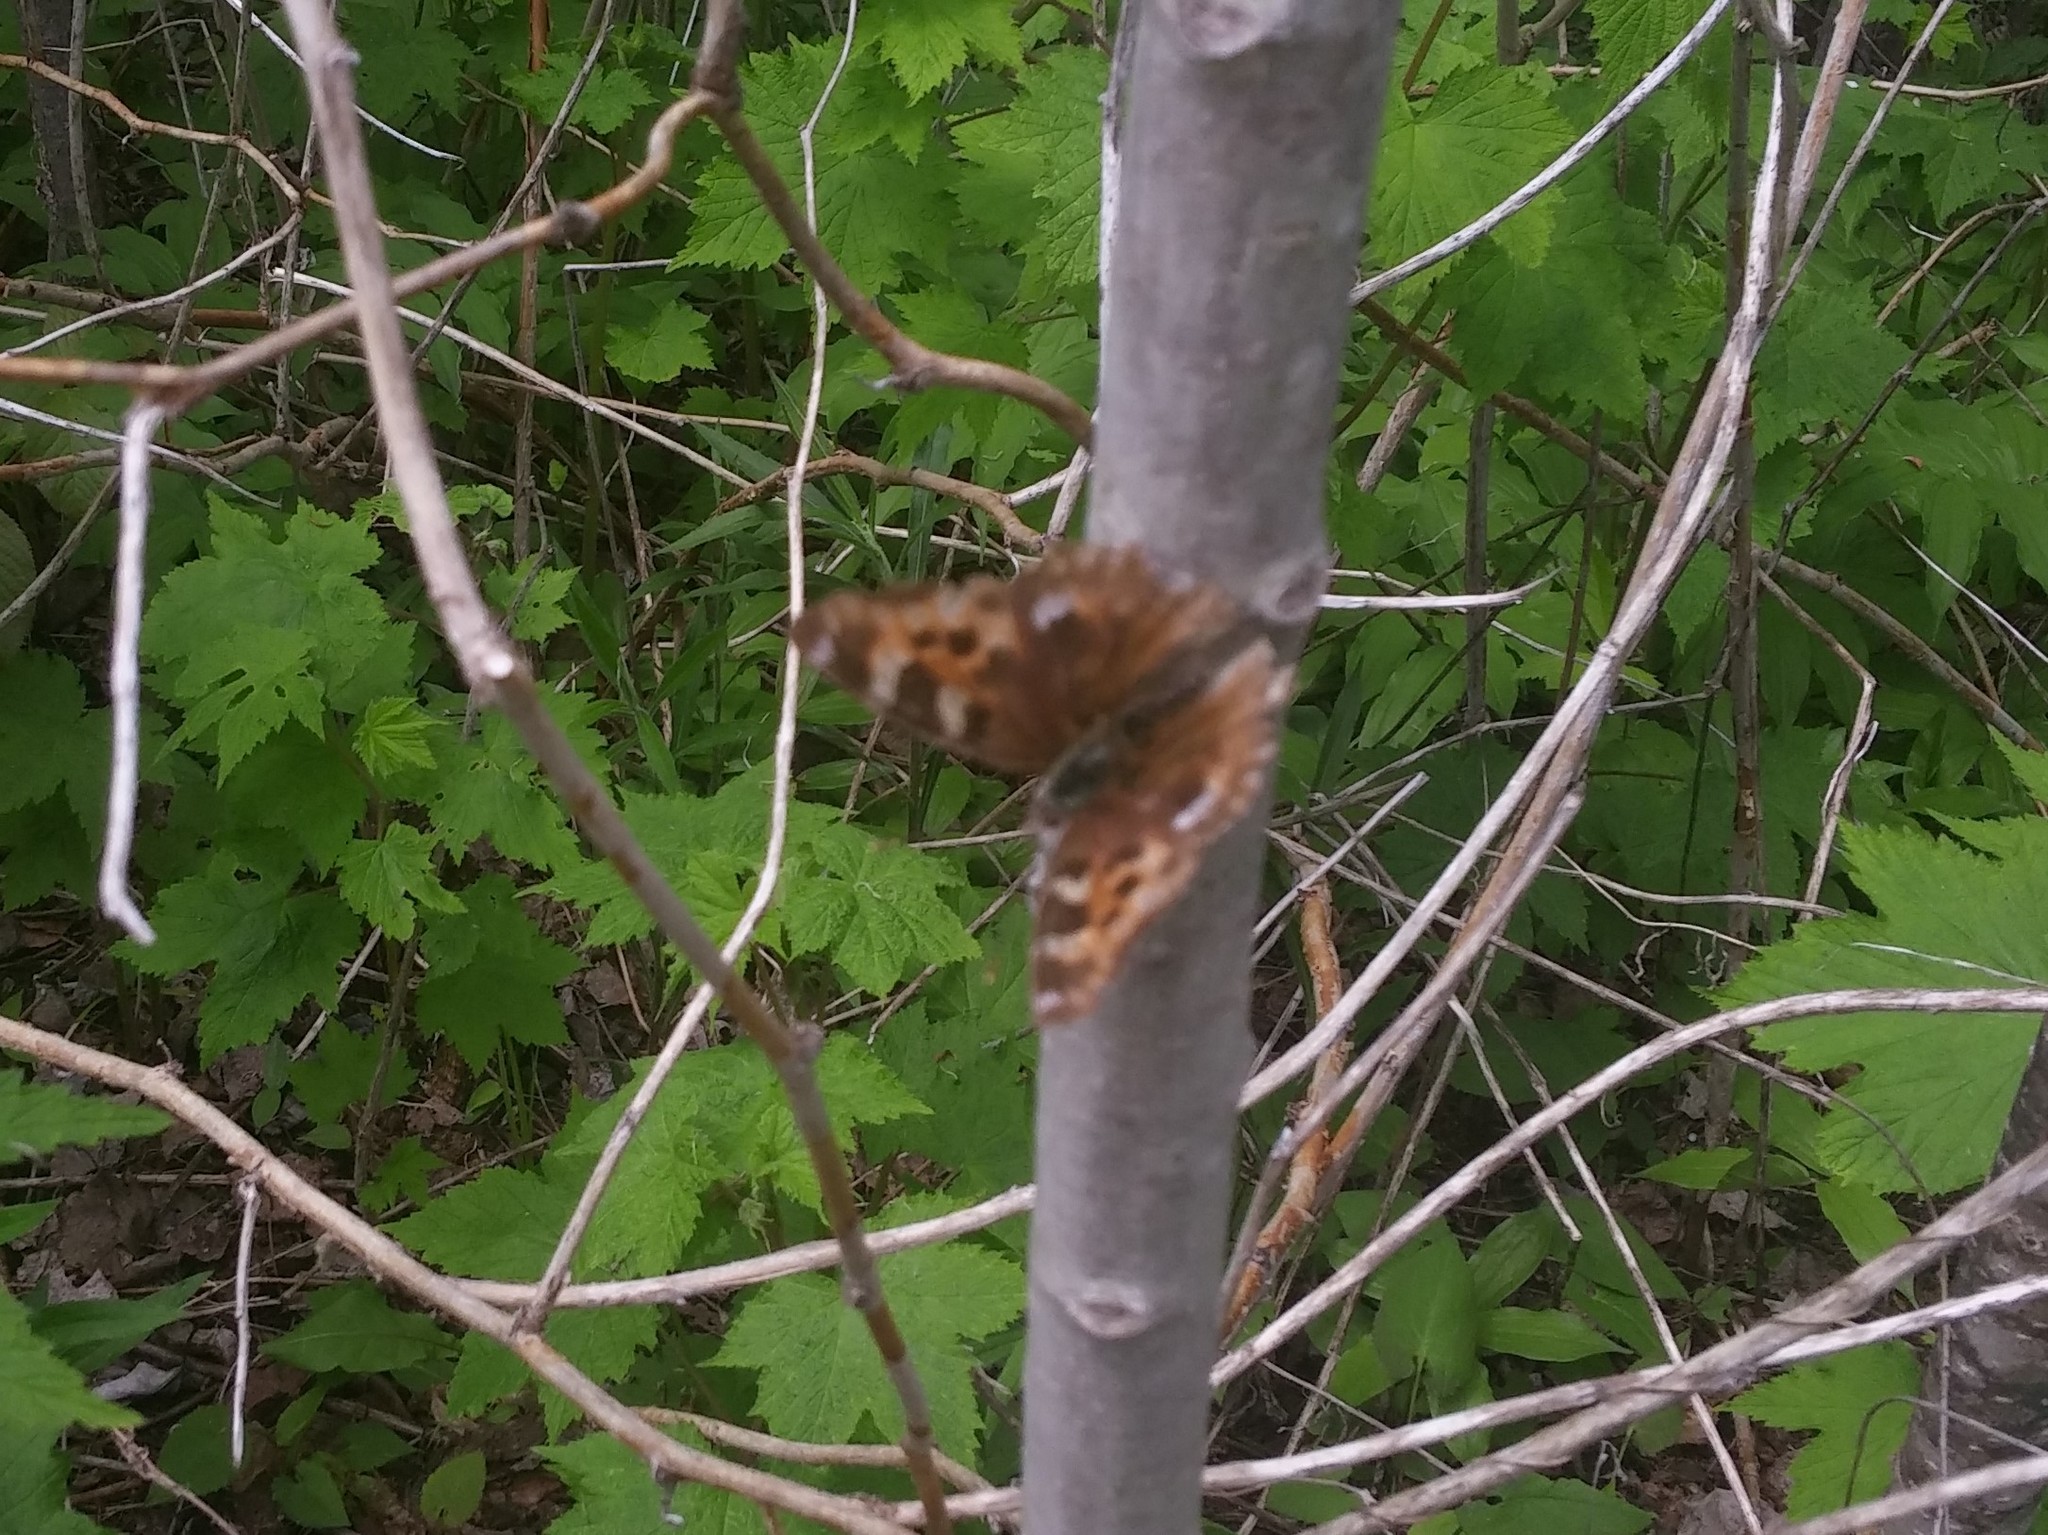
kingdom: Animalia
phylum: Arthropoda
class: Insecta
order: Lepidoptera
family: Nymphalidae
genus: Polygonia
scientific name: Polygonia vaualbum
